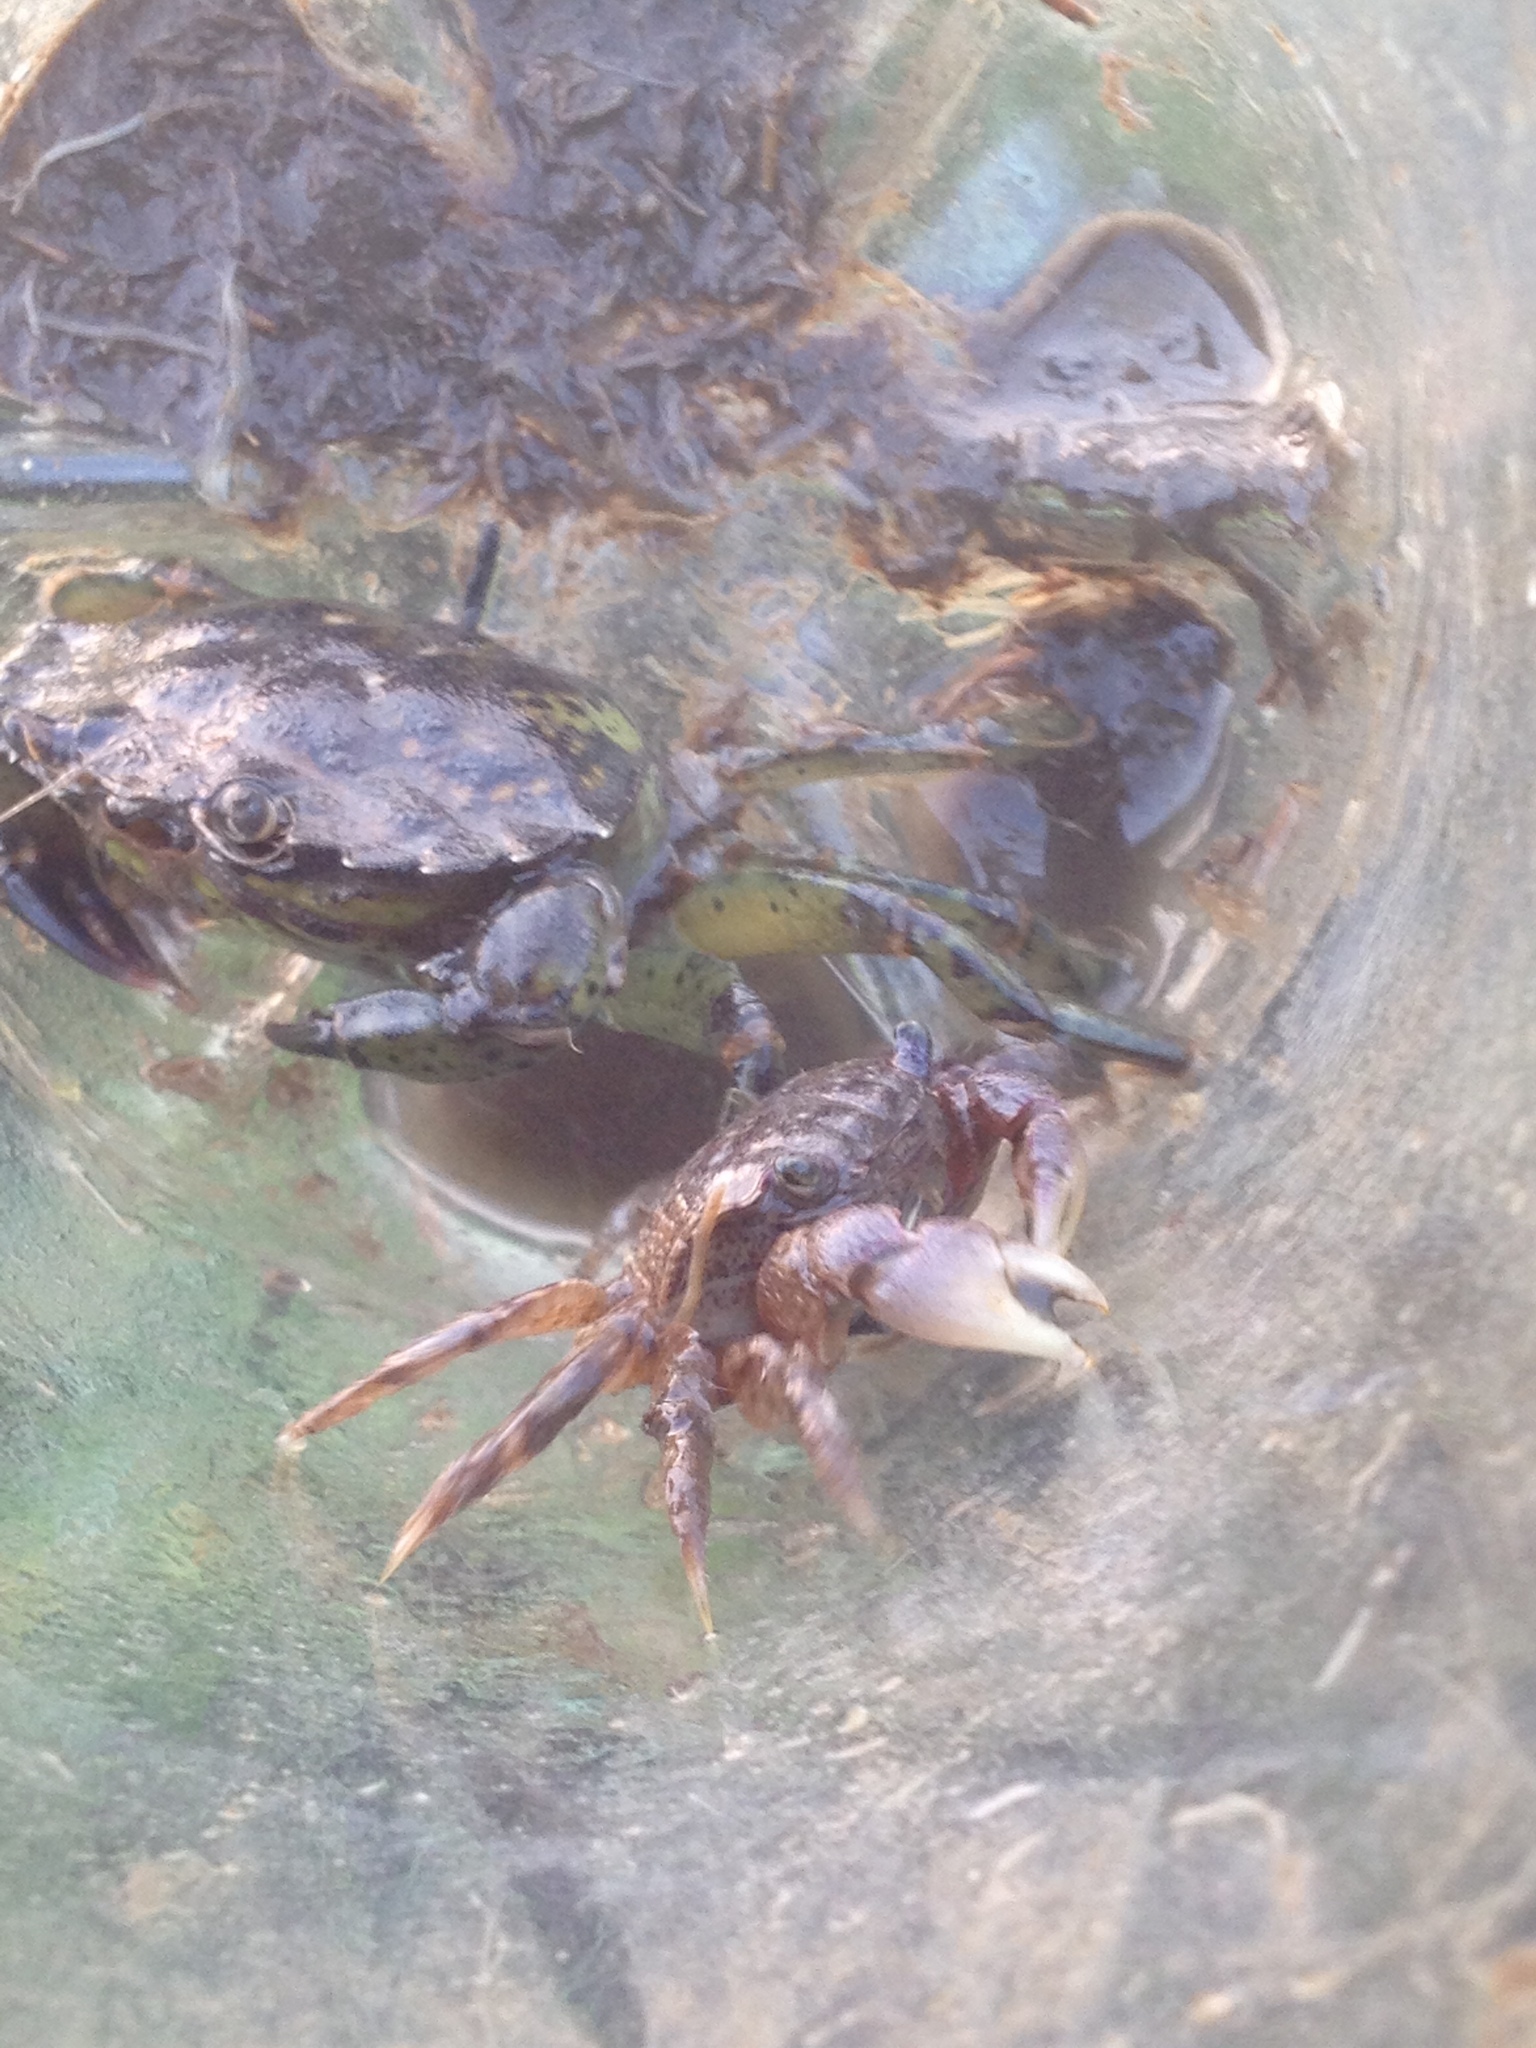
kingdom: Animalia
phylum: Arthropoda
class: Malacostraca
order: Decapoda
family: Sesarmidae
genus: Sesarma
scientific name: Sesarma reticulatum
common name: Heavy marsh crab
